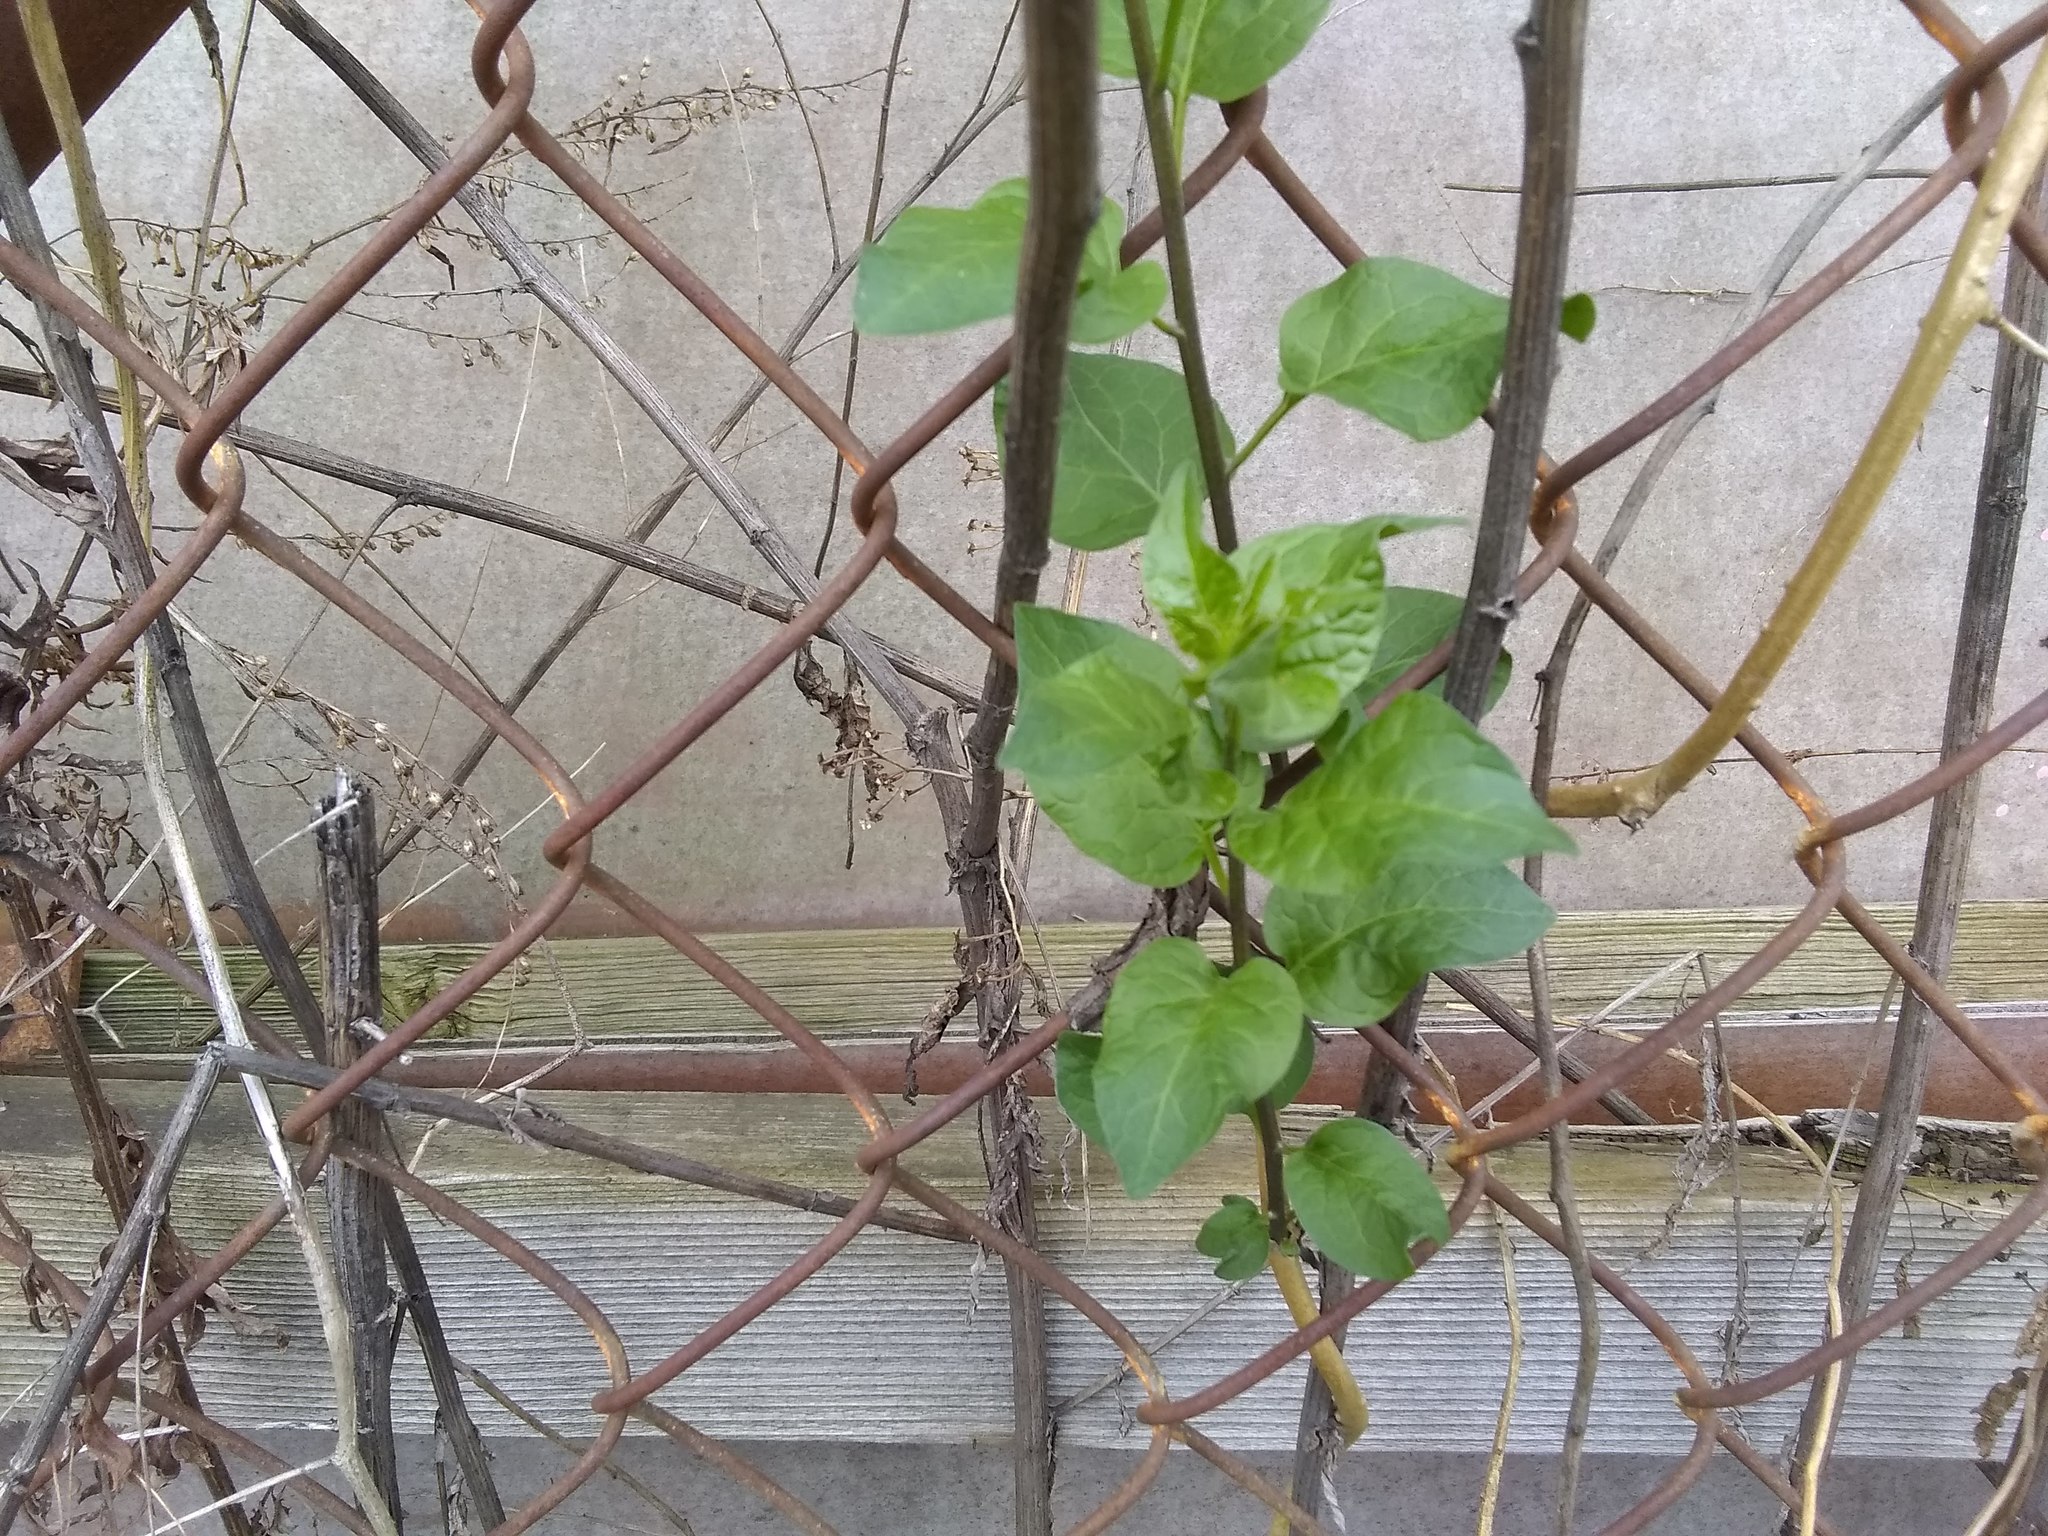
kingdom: Plantae
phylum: Tracheophyta
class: Magnoliopsida
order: Solanales
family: Solanaceae
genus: Solanum
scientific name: Solanum dulcamara
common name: Climbing nightshade
